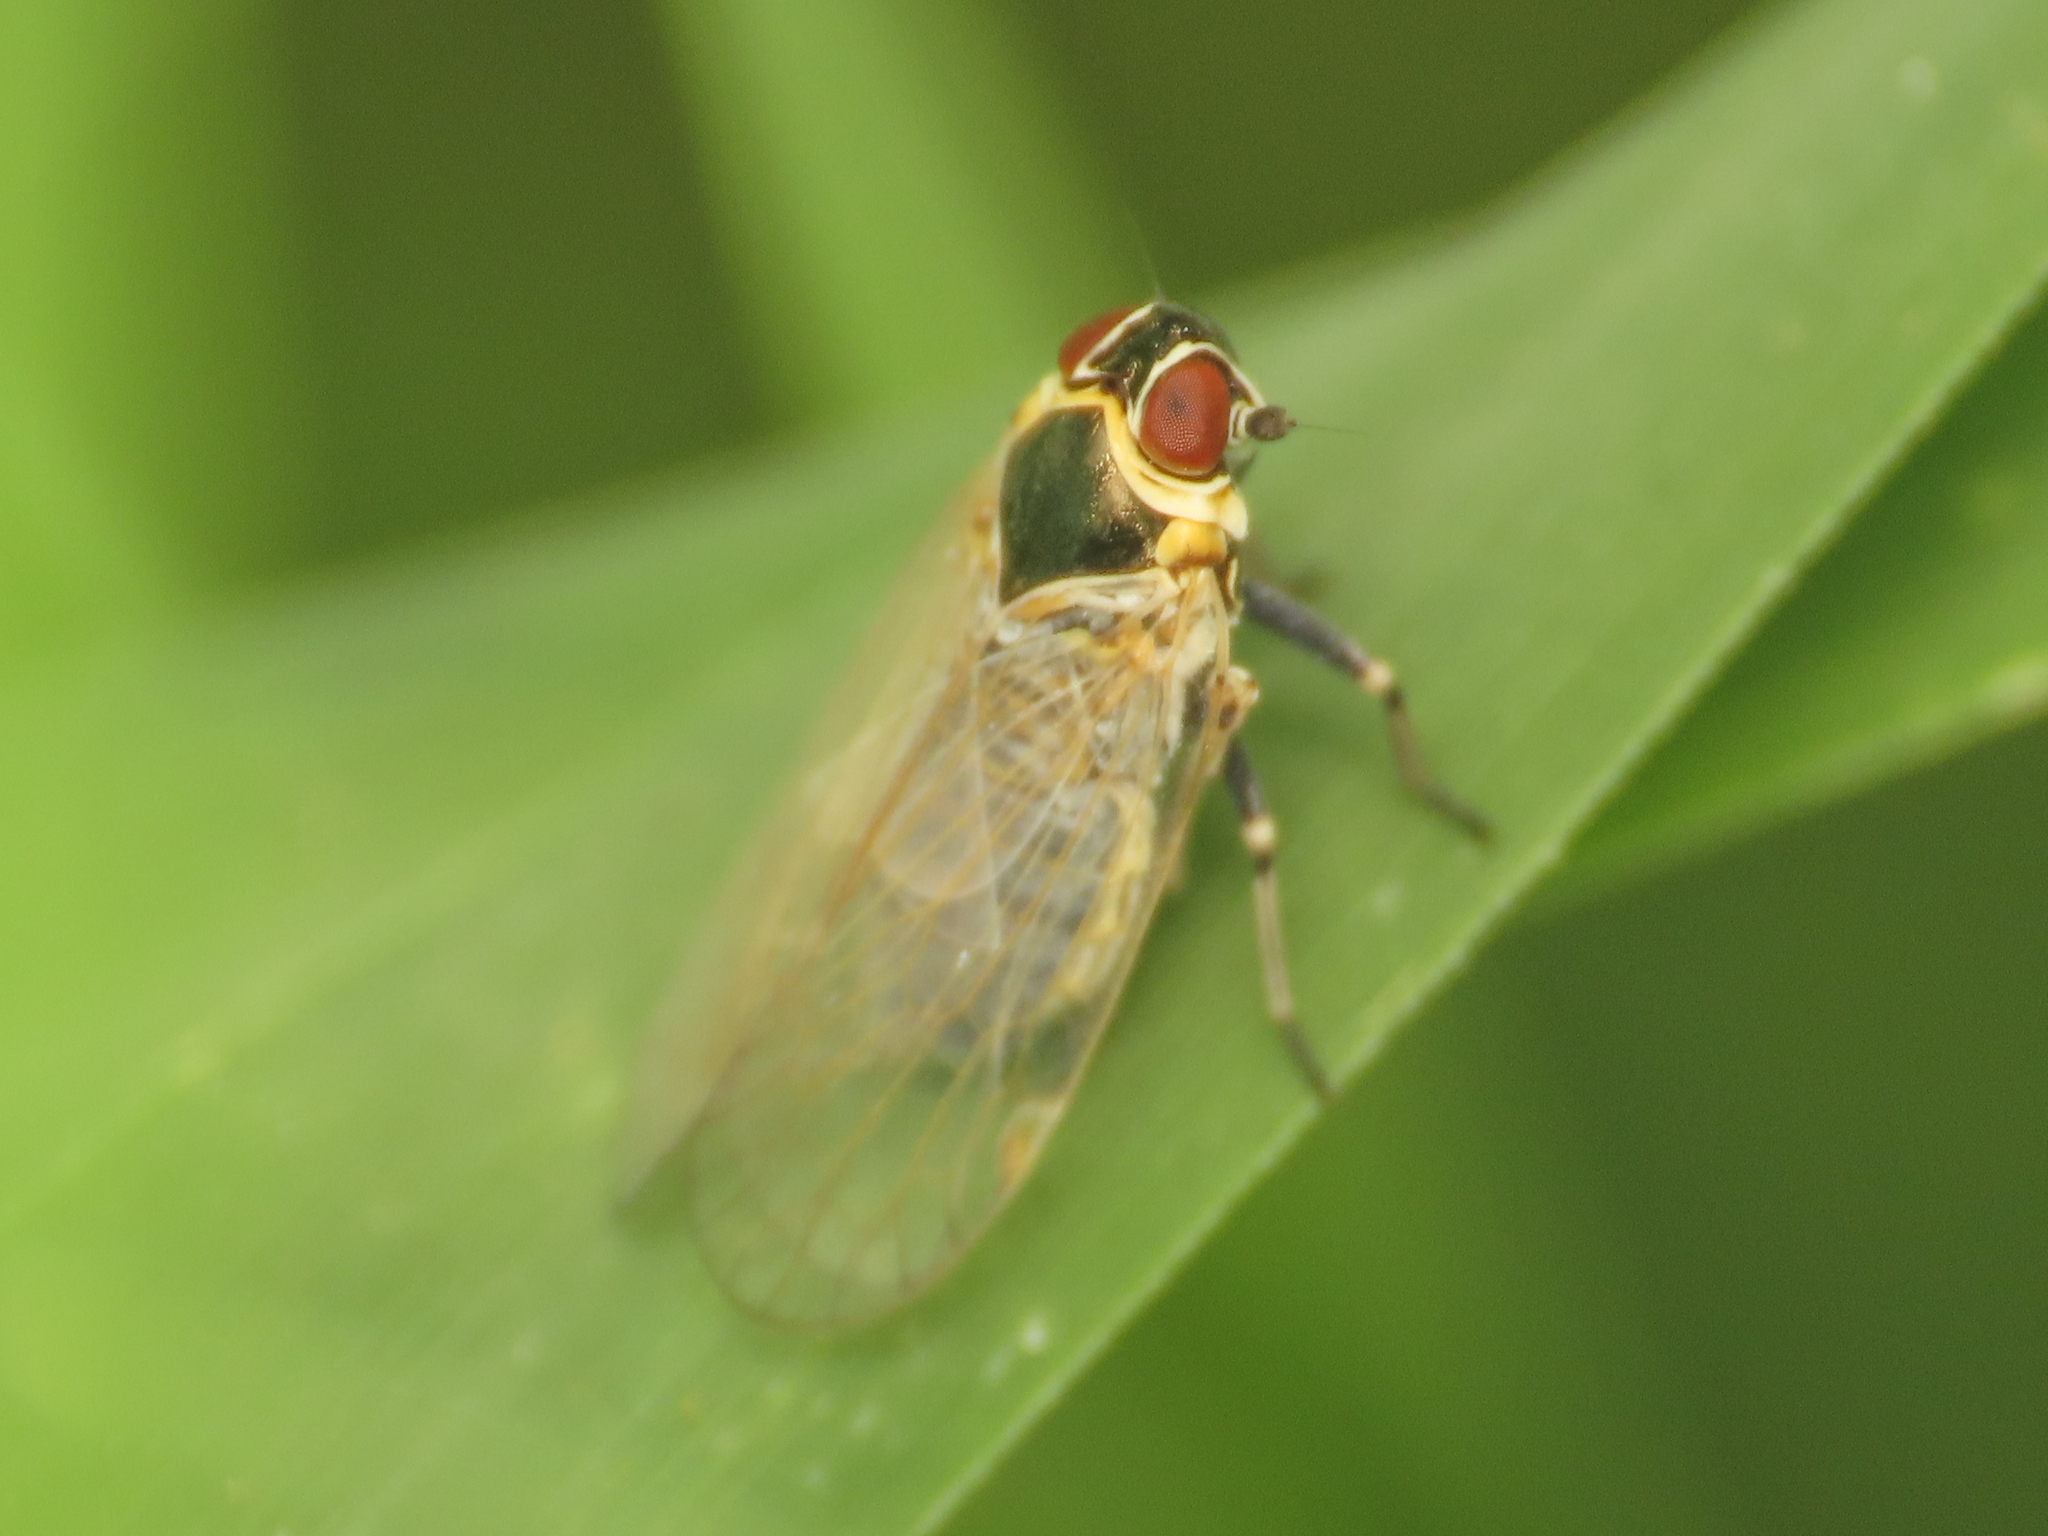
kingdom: Animalia
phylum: Arthropoda
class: Insecta
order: Hemiptera
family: Cixiidae
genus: Hyalesthes
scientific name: Hyalesthes obsoletus
